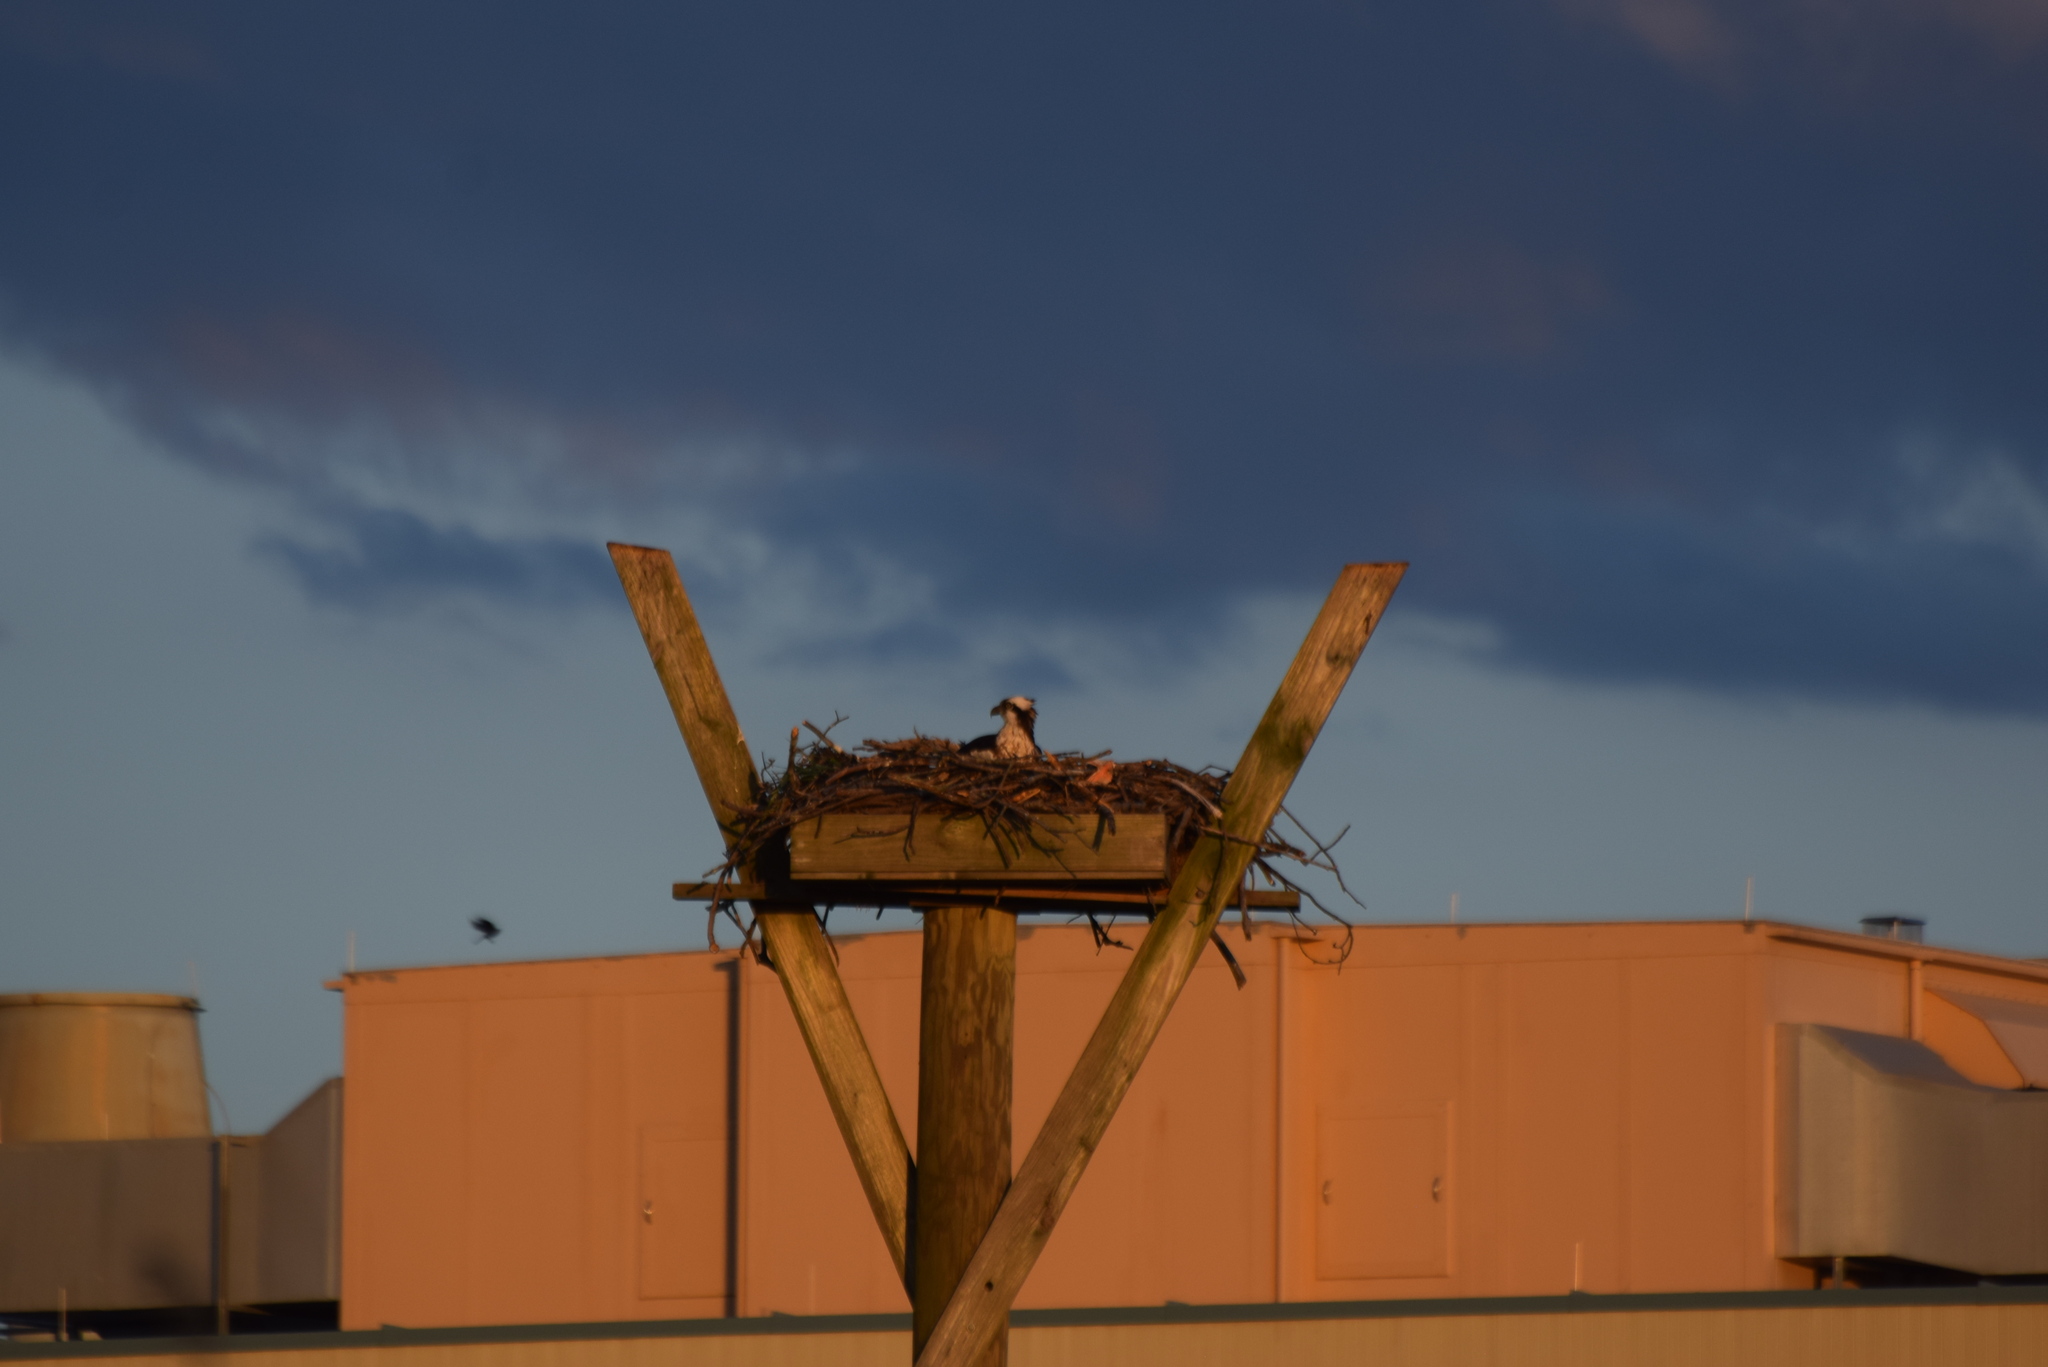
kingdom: Animalia
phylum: Chordata
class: Aves
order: Accipitriformes
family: Pandionidae
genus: Pandion
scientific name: Pandion haliaetus
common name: Osprey
